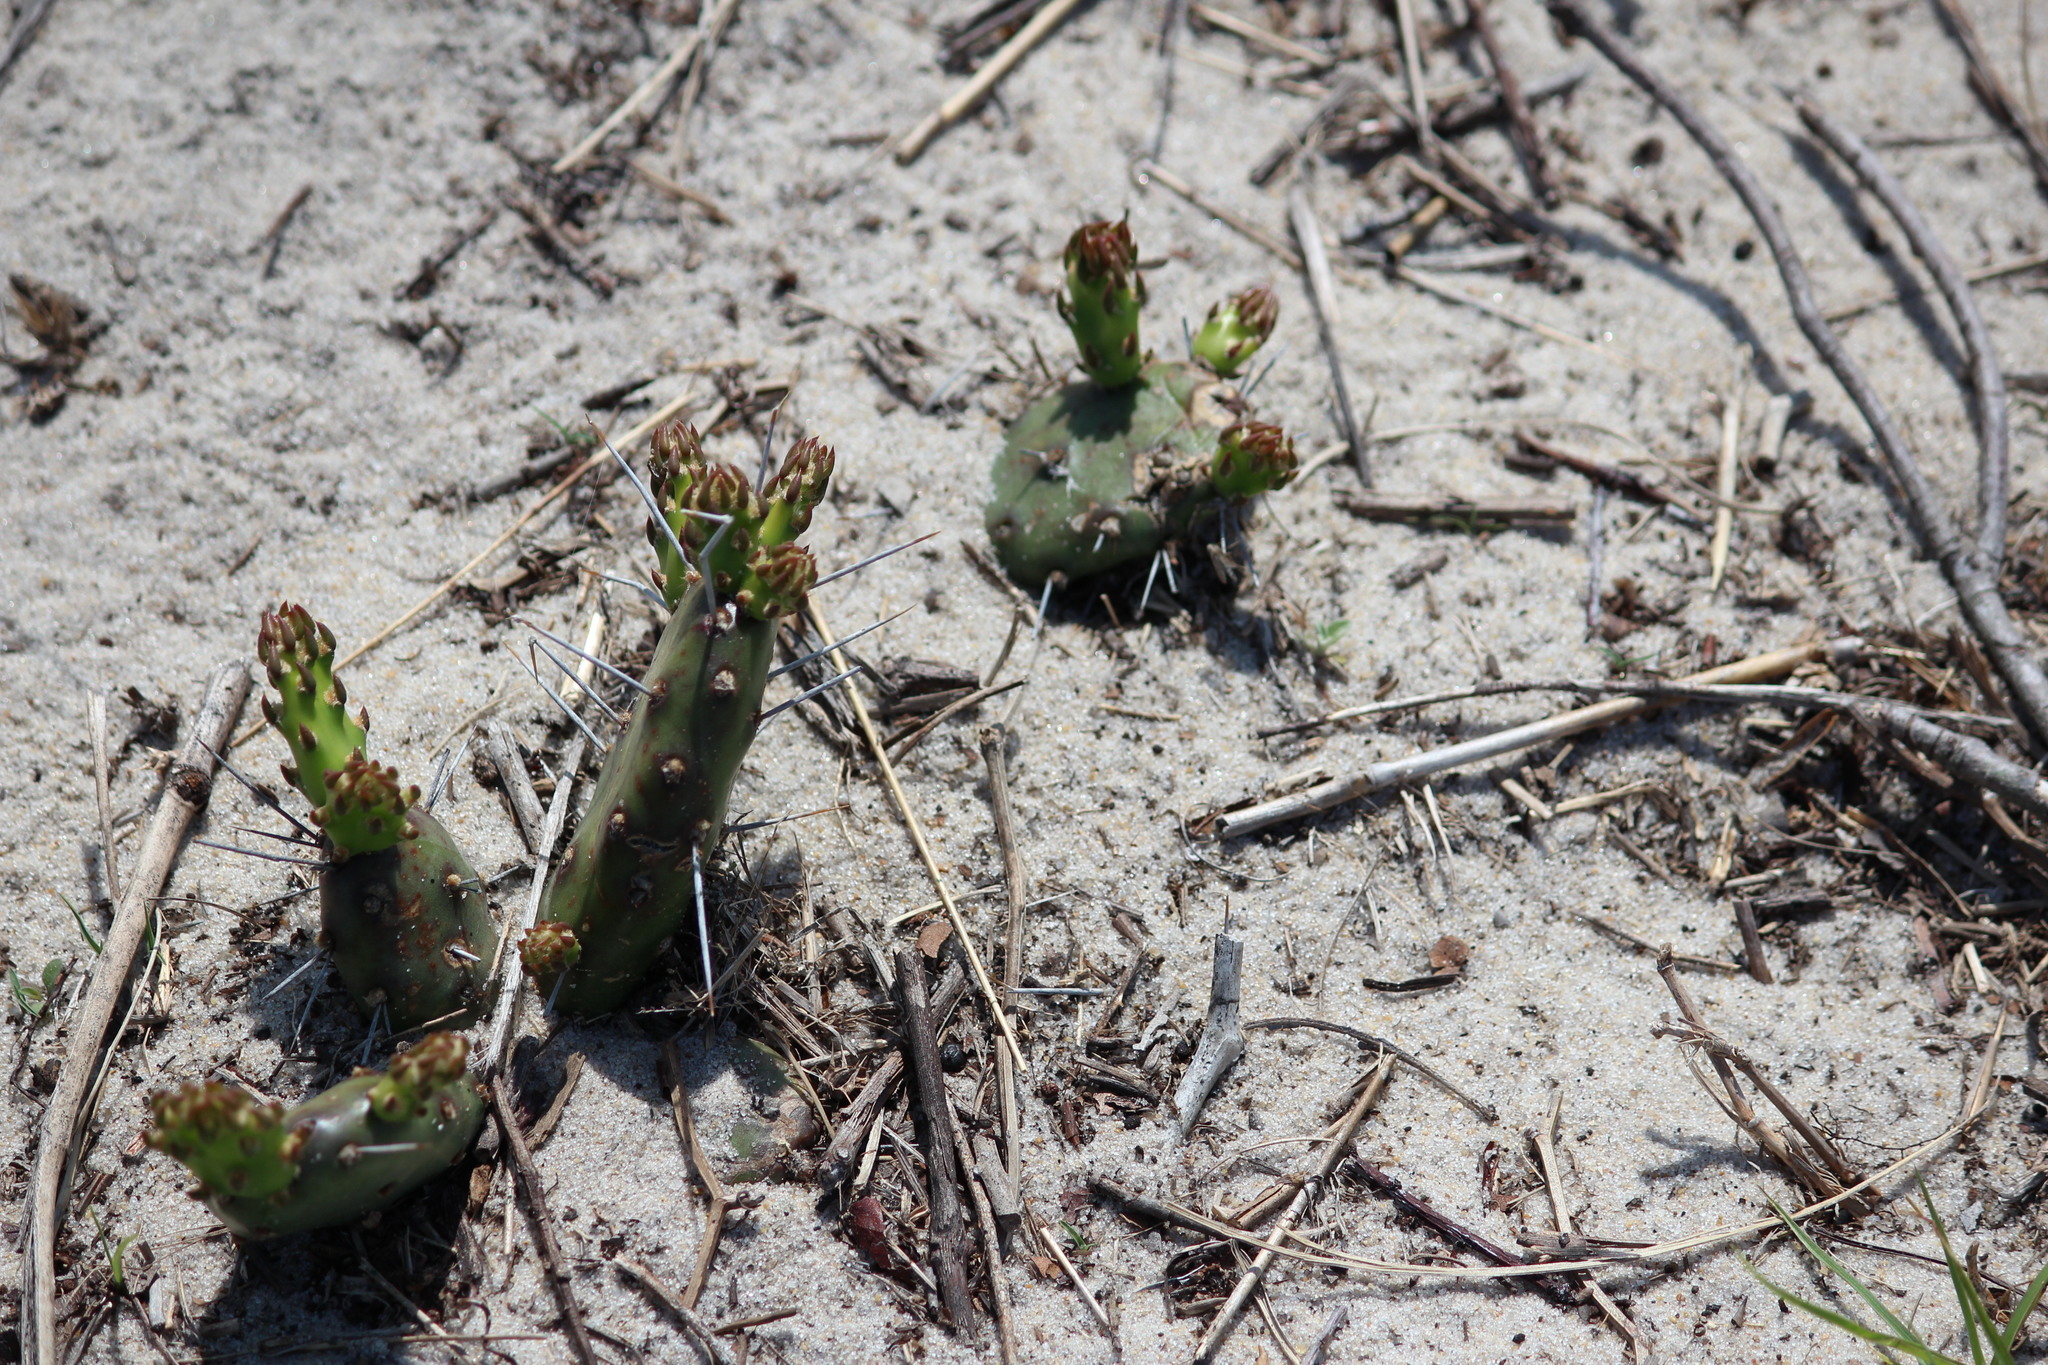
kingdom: Plantae
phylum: Tracheophyta
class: Magnoliopsida
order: Caryophyllales
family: Cactaceae
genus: Opuntia
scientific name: Opuntia drummondii
